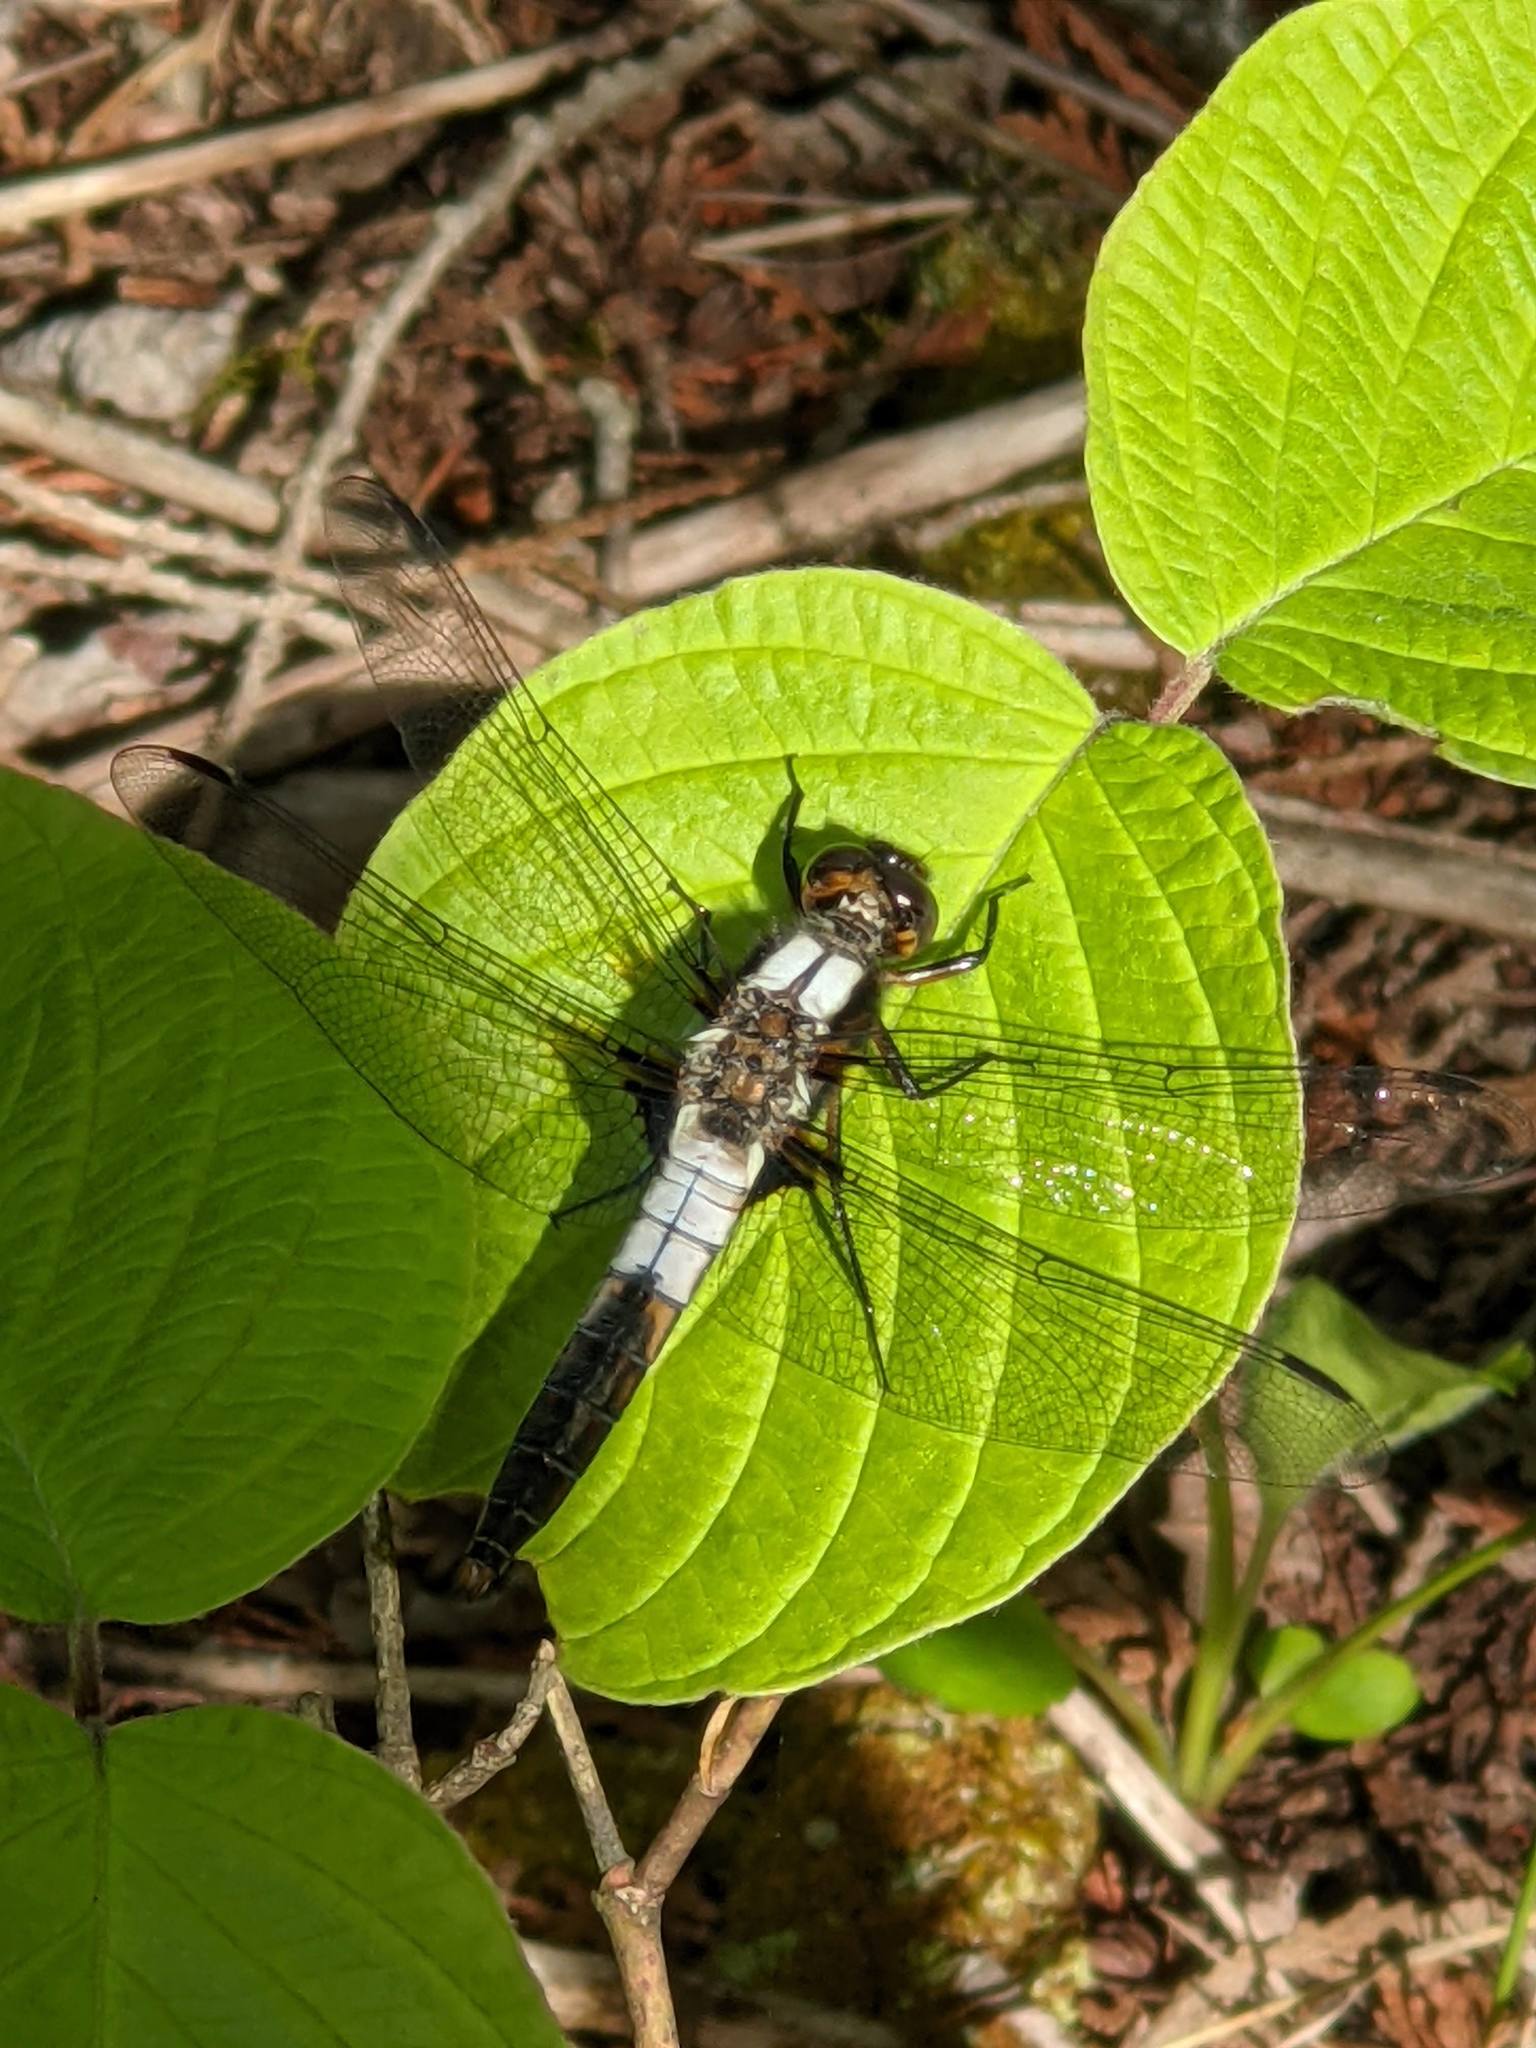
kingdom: Animalia
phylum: Arthropoda
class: Insecta
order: Odonata
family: Libellulidae
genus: Ladona
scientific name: Ladona julia
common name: Chalk-fronted corporal
